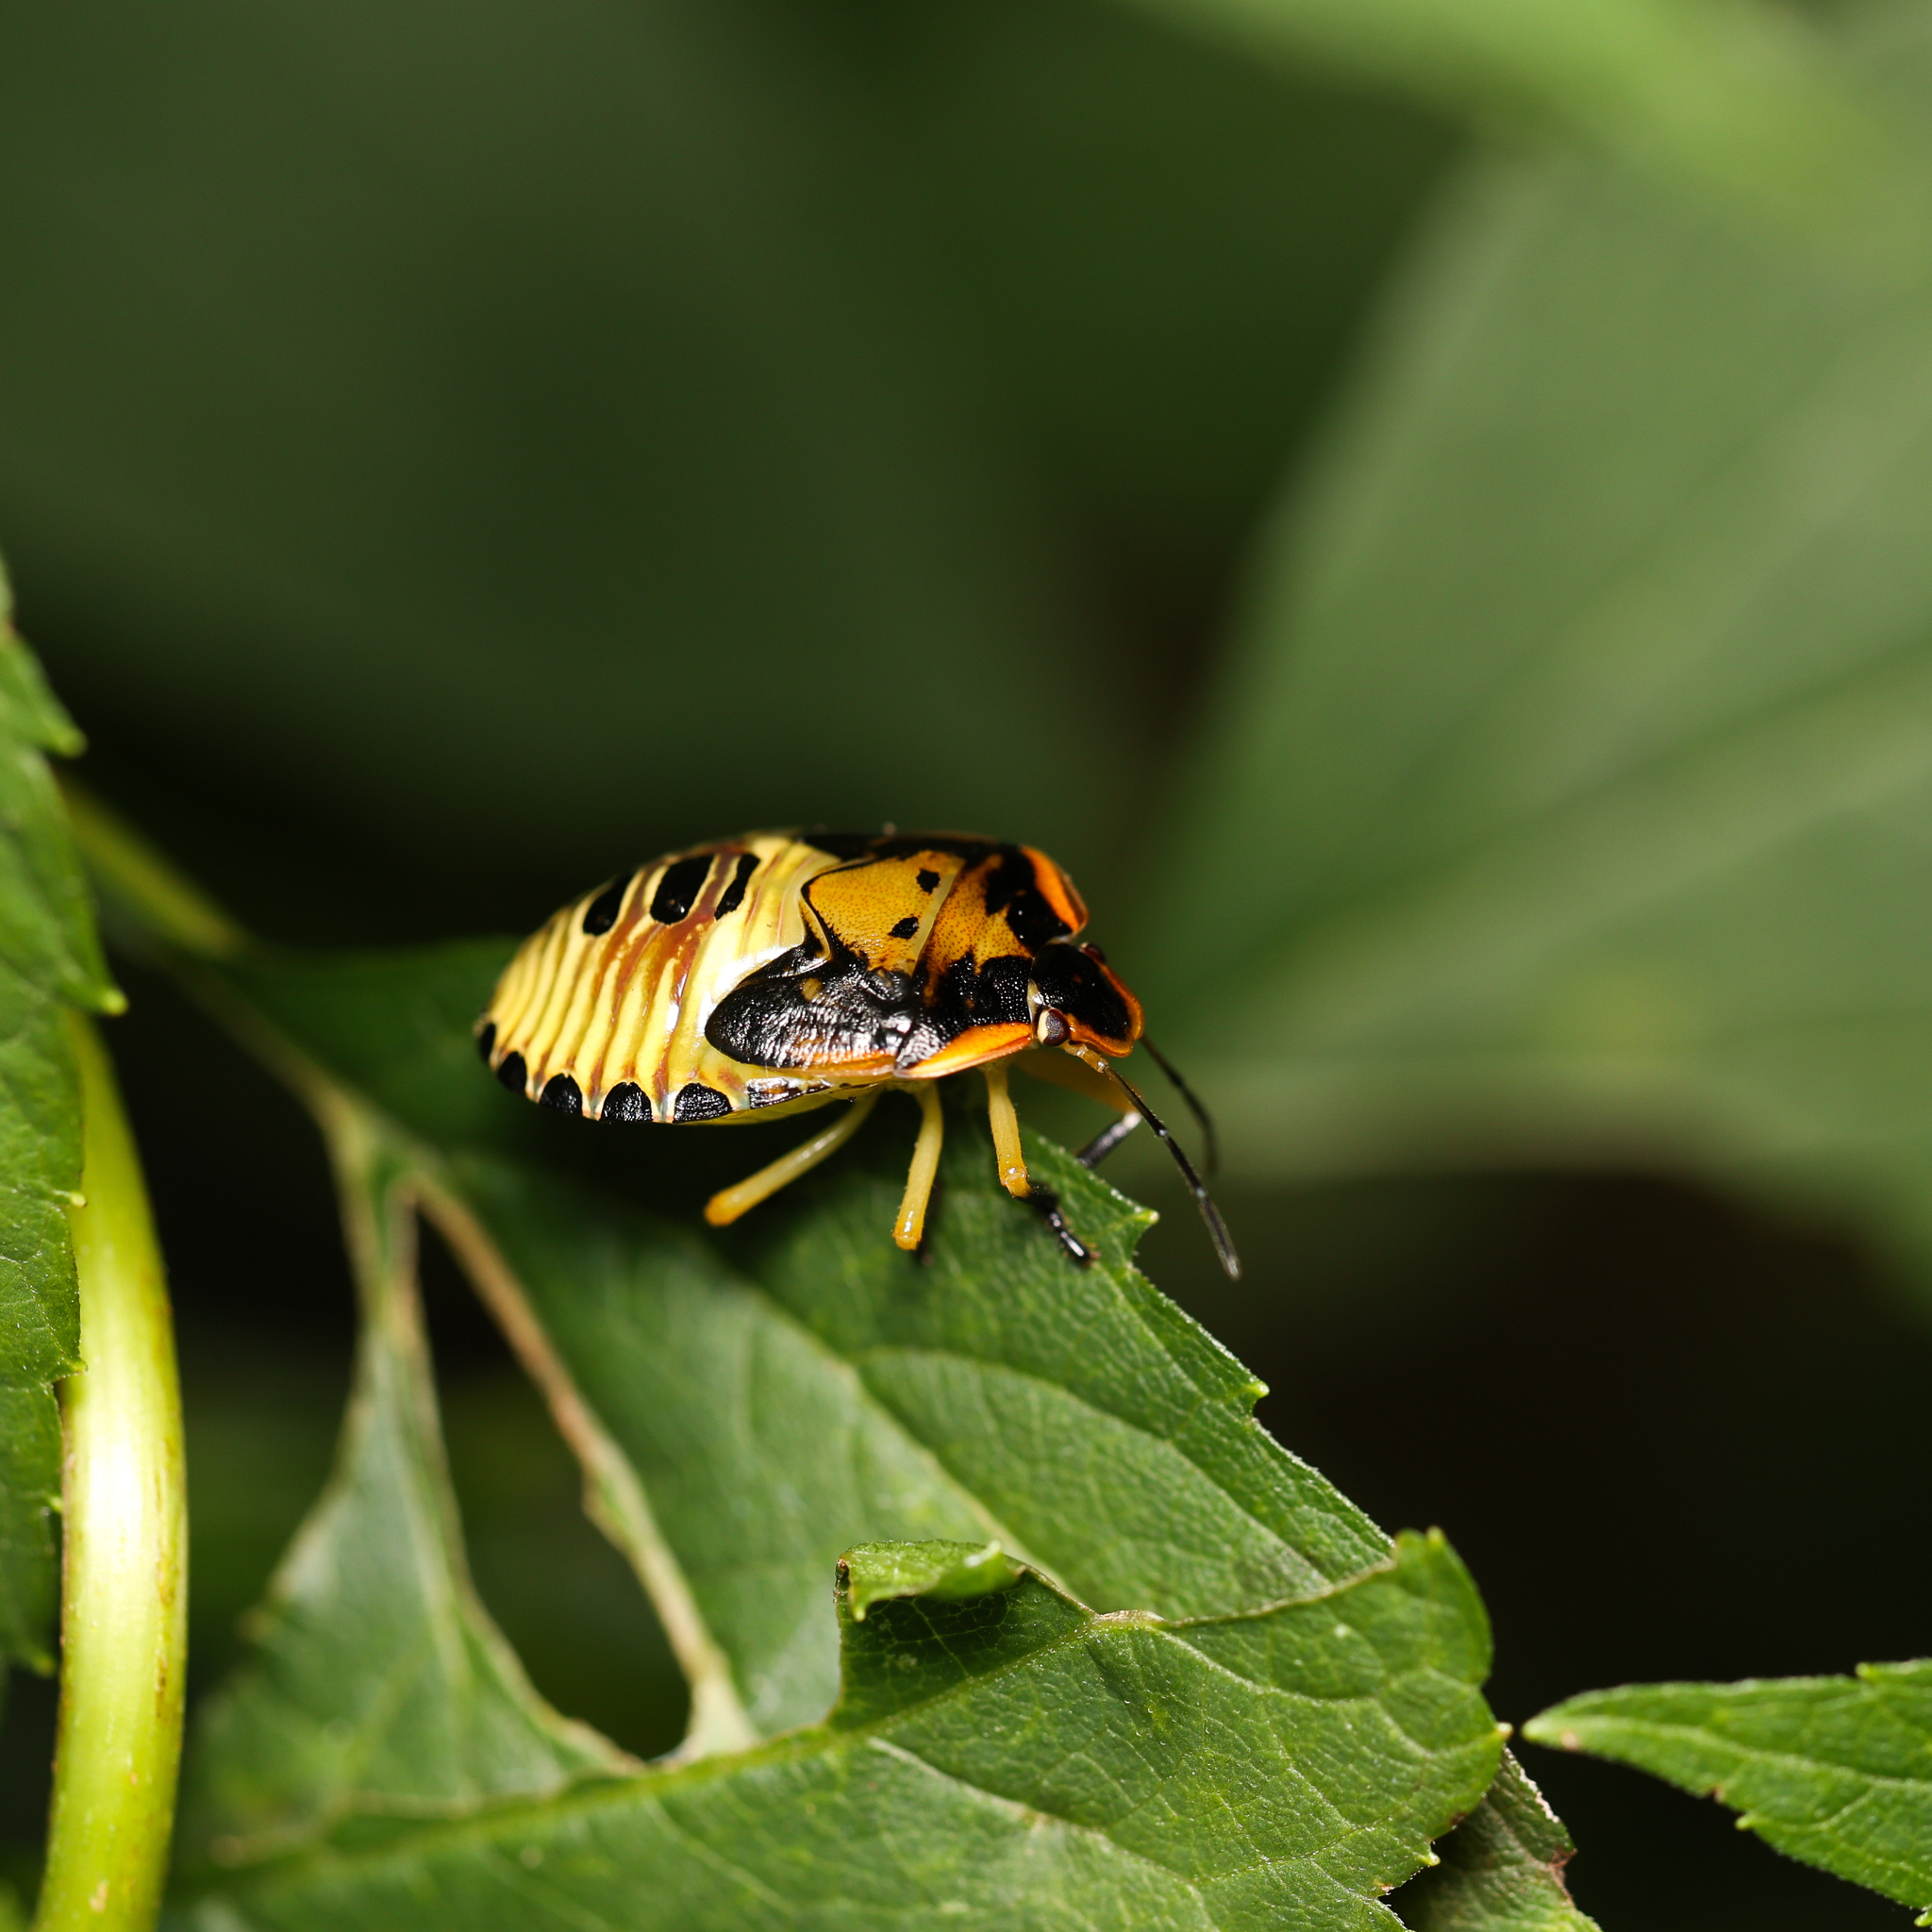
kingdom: Animalia
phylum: Arthropoda
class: Insecta
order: Hemiptera
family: Pentatomidae
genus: Chinavia
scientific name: Chinavia hilaris
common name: Green stink bug
